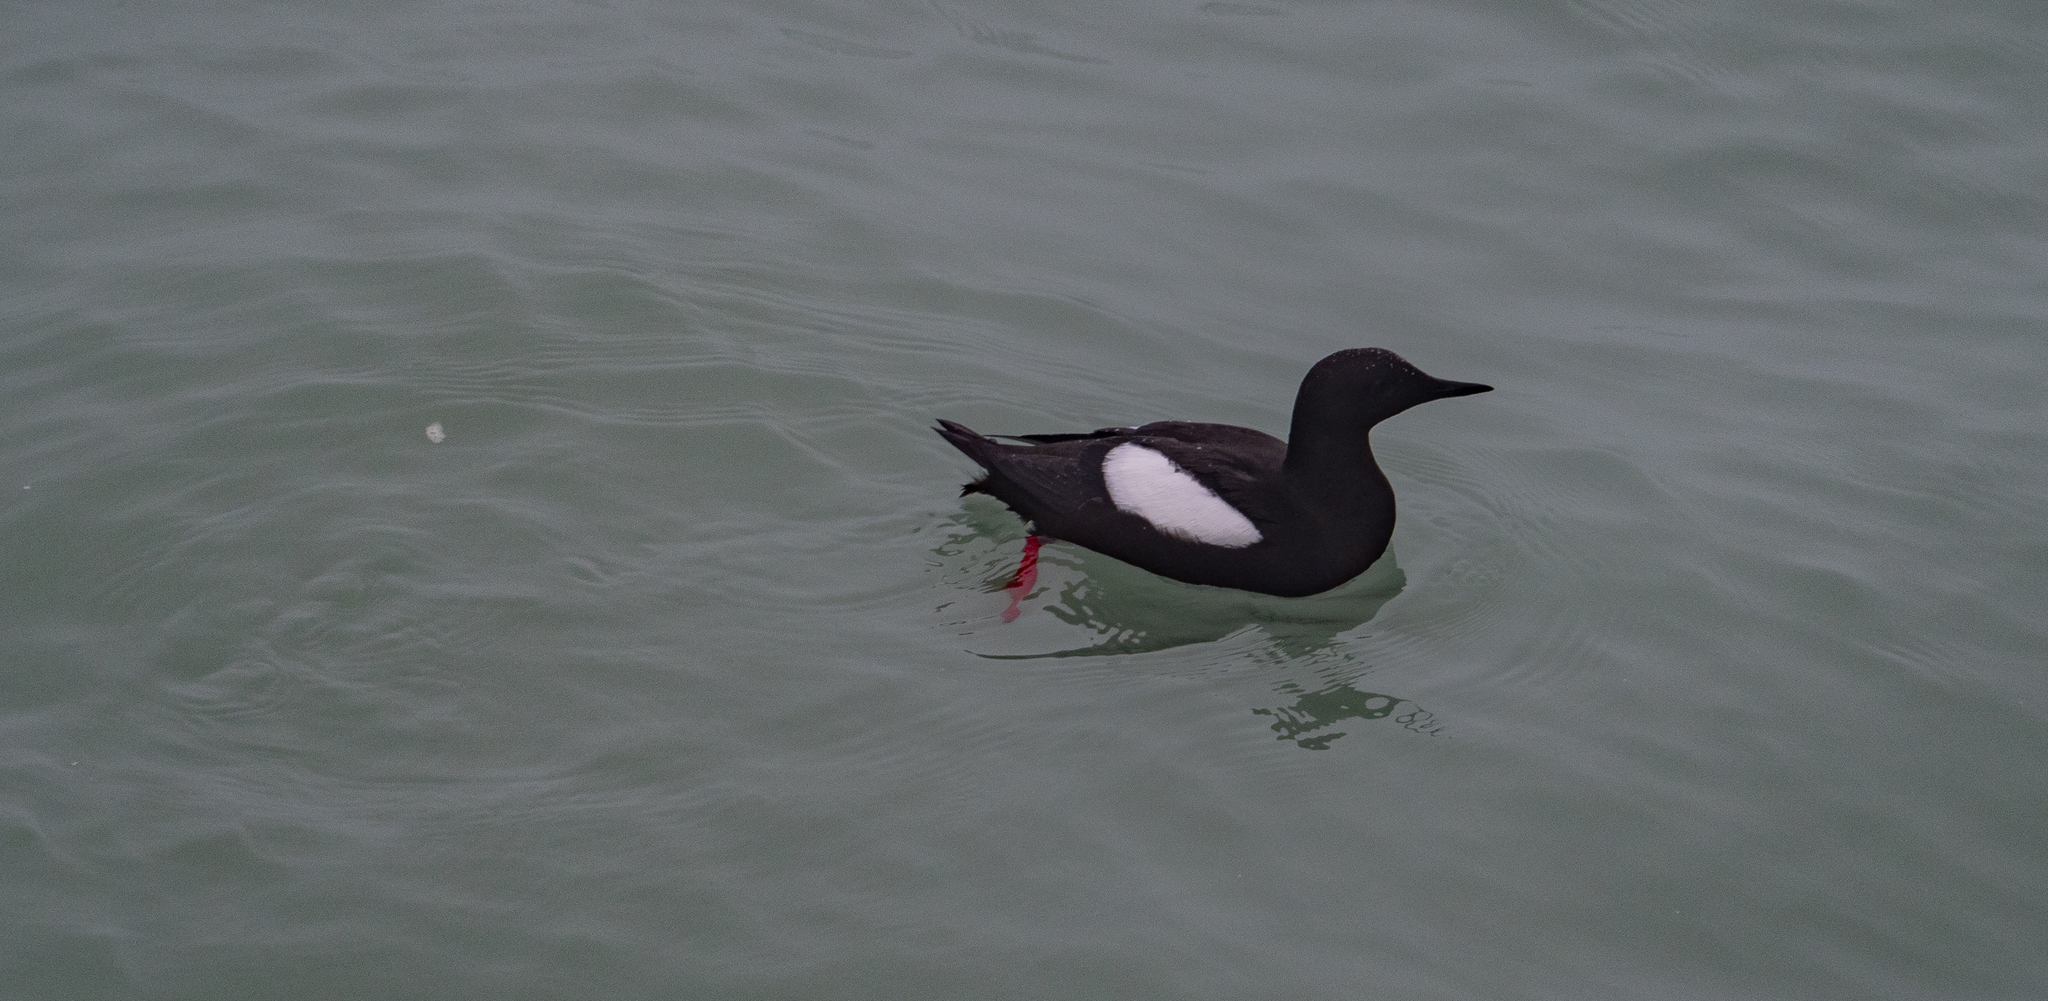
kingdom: Animalia
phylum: Chordata
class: Aves
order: Charadriiformes
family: Alcidae
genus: Cepphus
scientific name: Cepphus grylle
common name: Black guillemot
